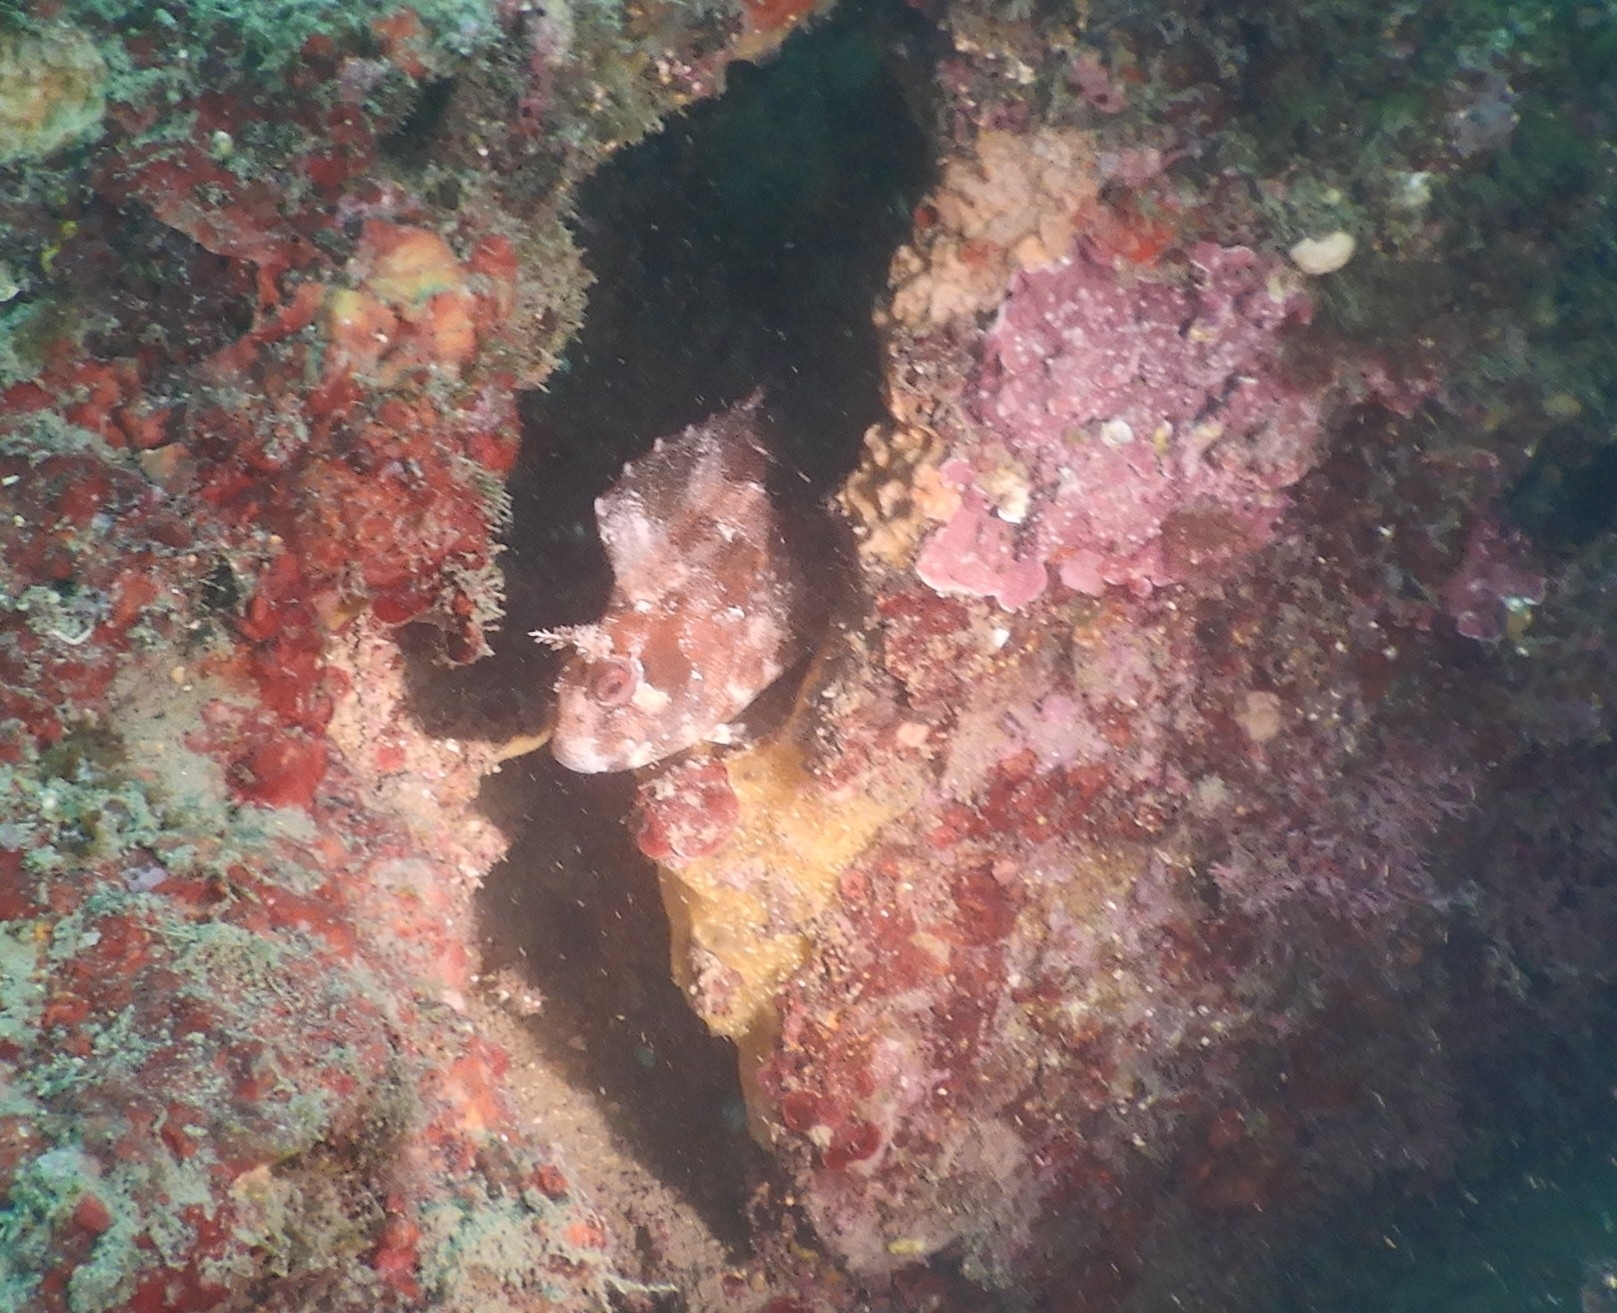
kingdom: Animalia
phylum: Chordata
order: Perciformes
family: Blenniidae
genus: Parablennius
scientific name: Parablennius gattorugine
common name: Tompot blenny
